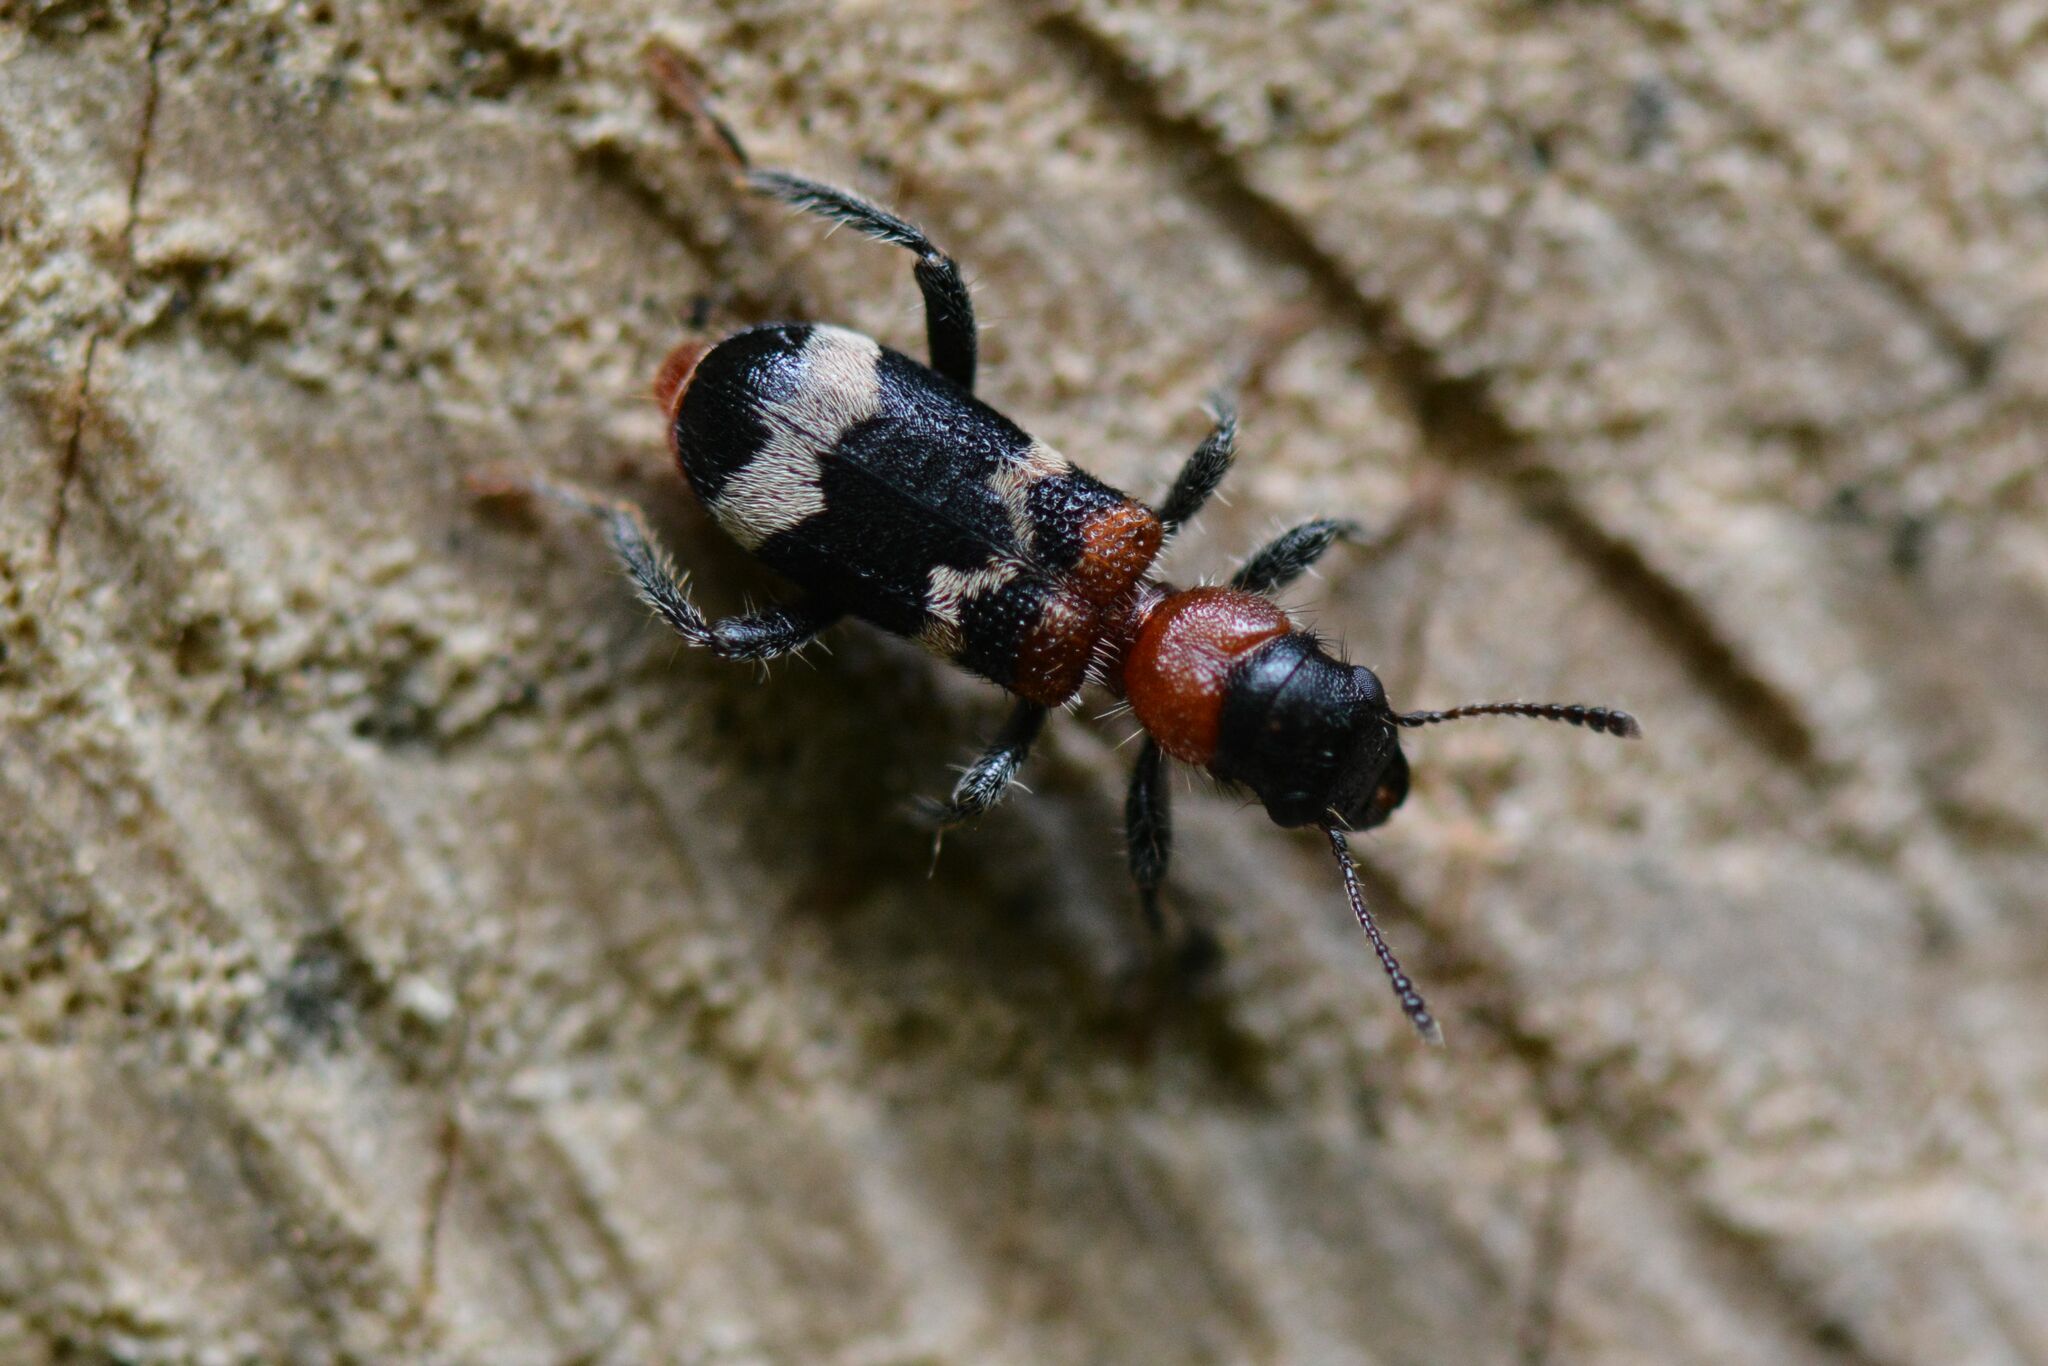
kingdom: Animalia
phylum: Arthropoda
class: Insecta
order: Coleoptera
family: Cleridae
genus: Thanasimus
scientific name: Thanasimus formicarius
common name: Ant beetle
